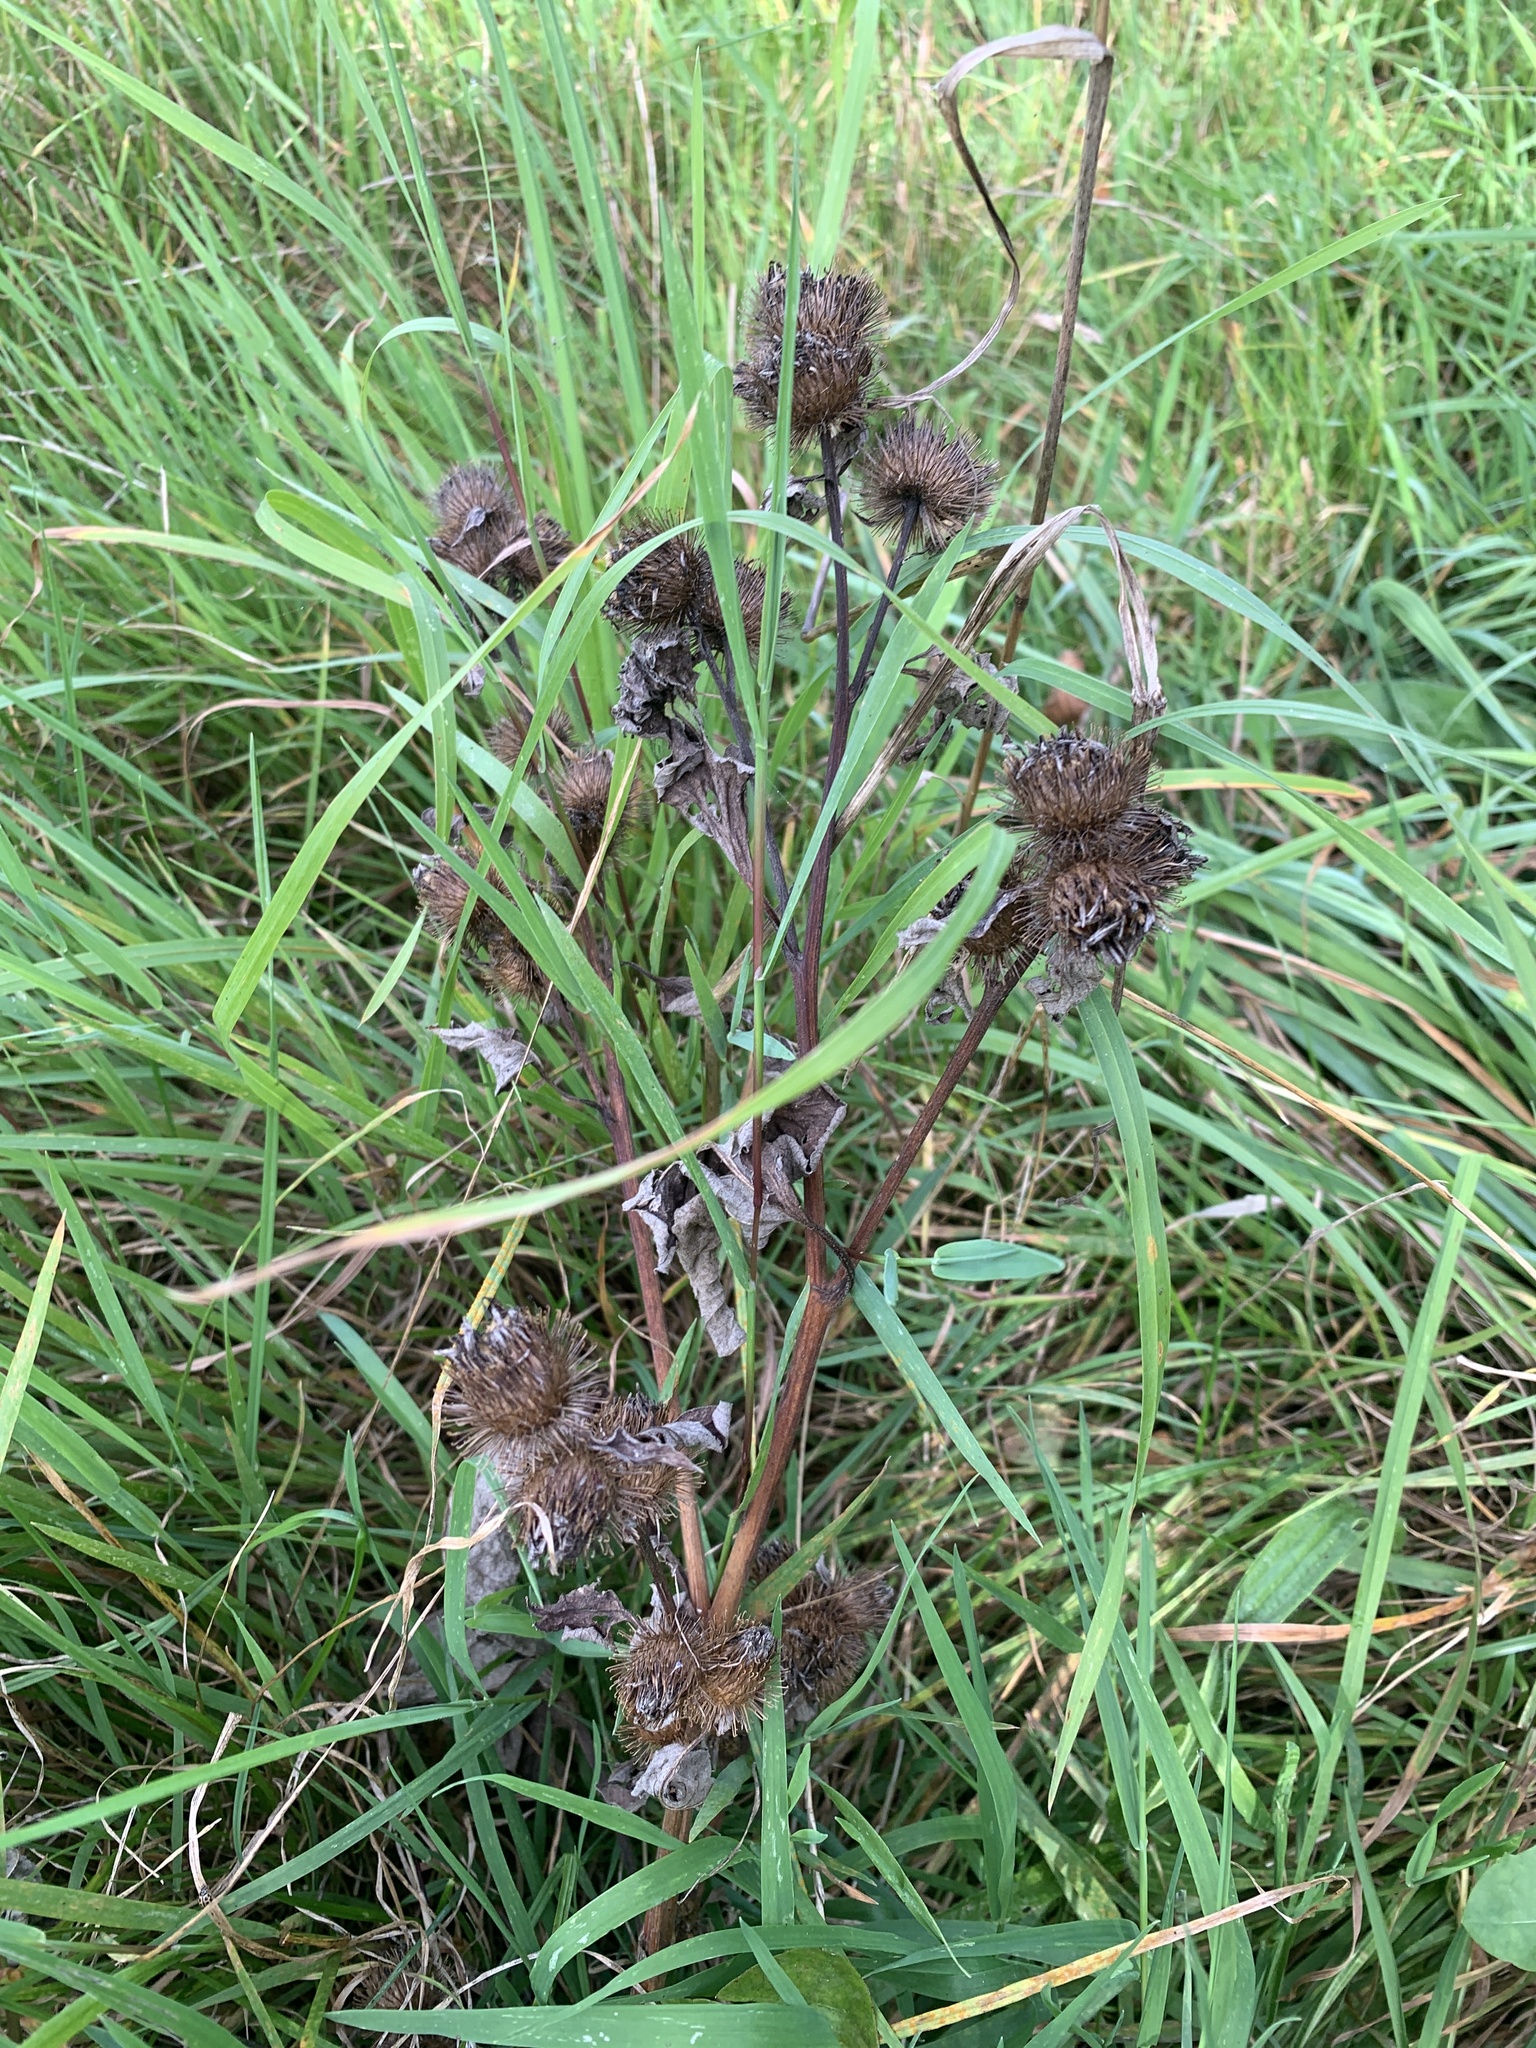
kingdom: Plantae
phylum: Tracheophyta
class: Magnoliopsida
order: Asterales
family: Asteraceae
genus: Arctium
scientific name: Arctium lappa
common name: Greater burdock
